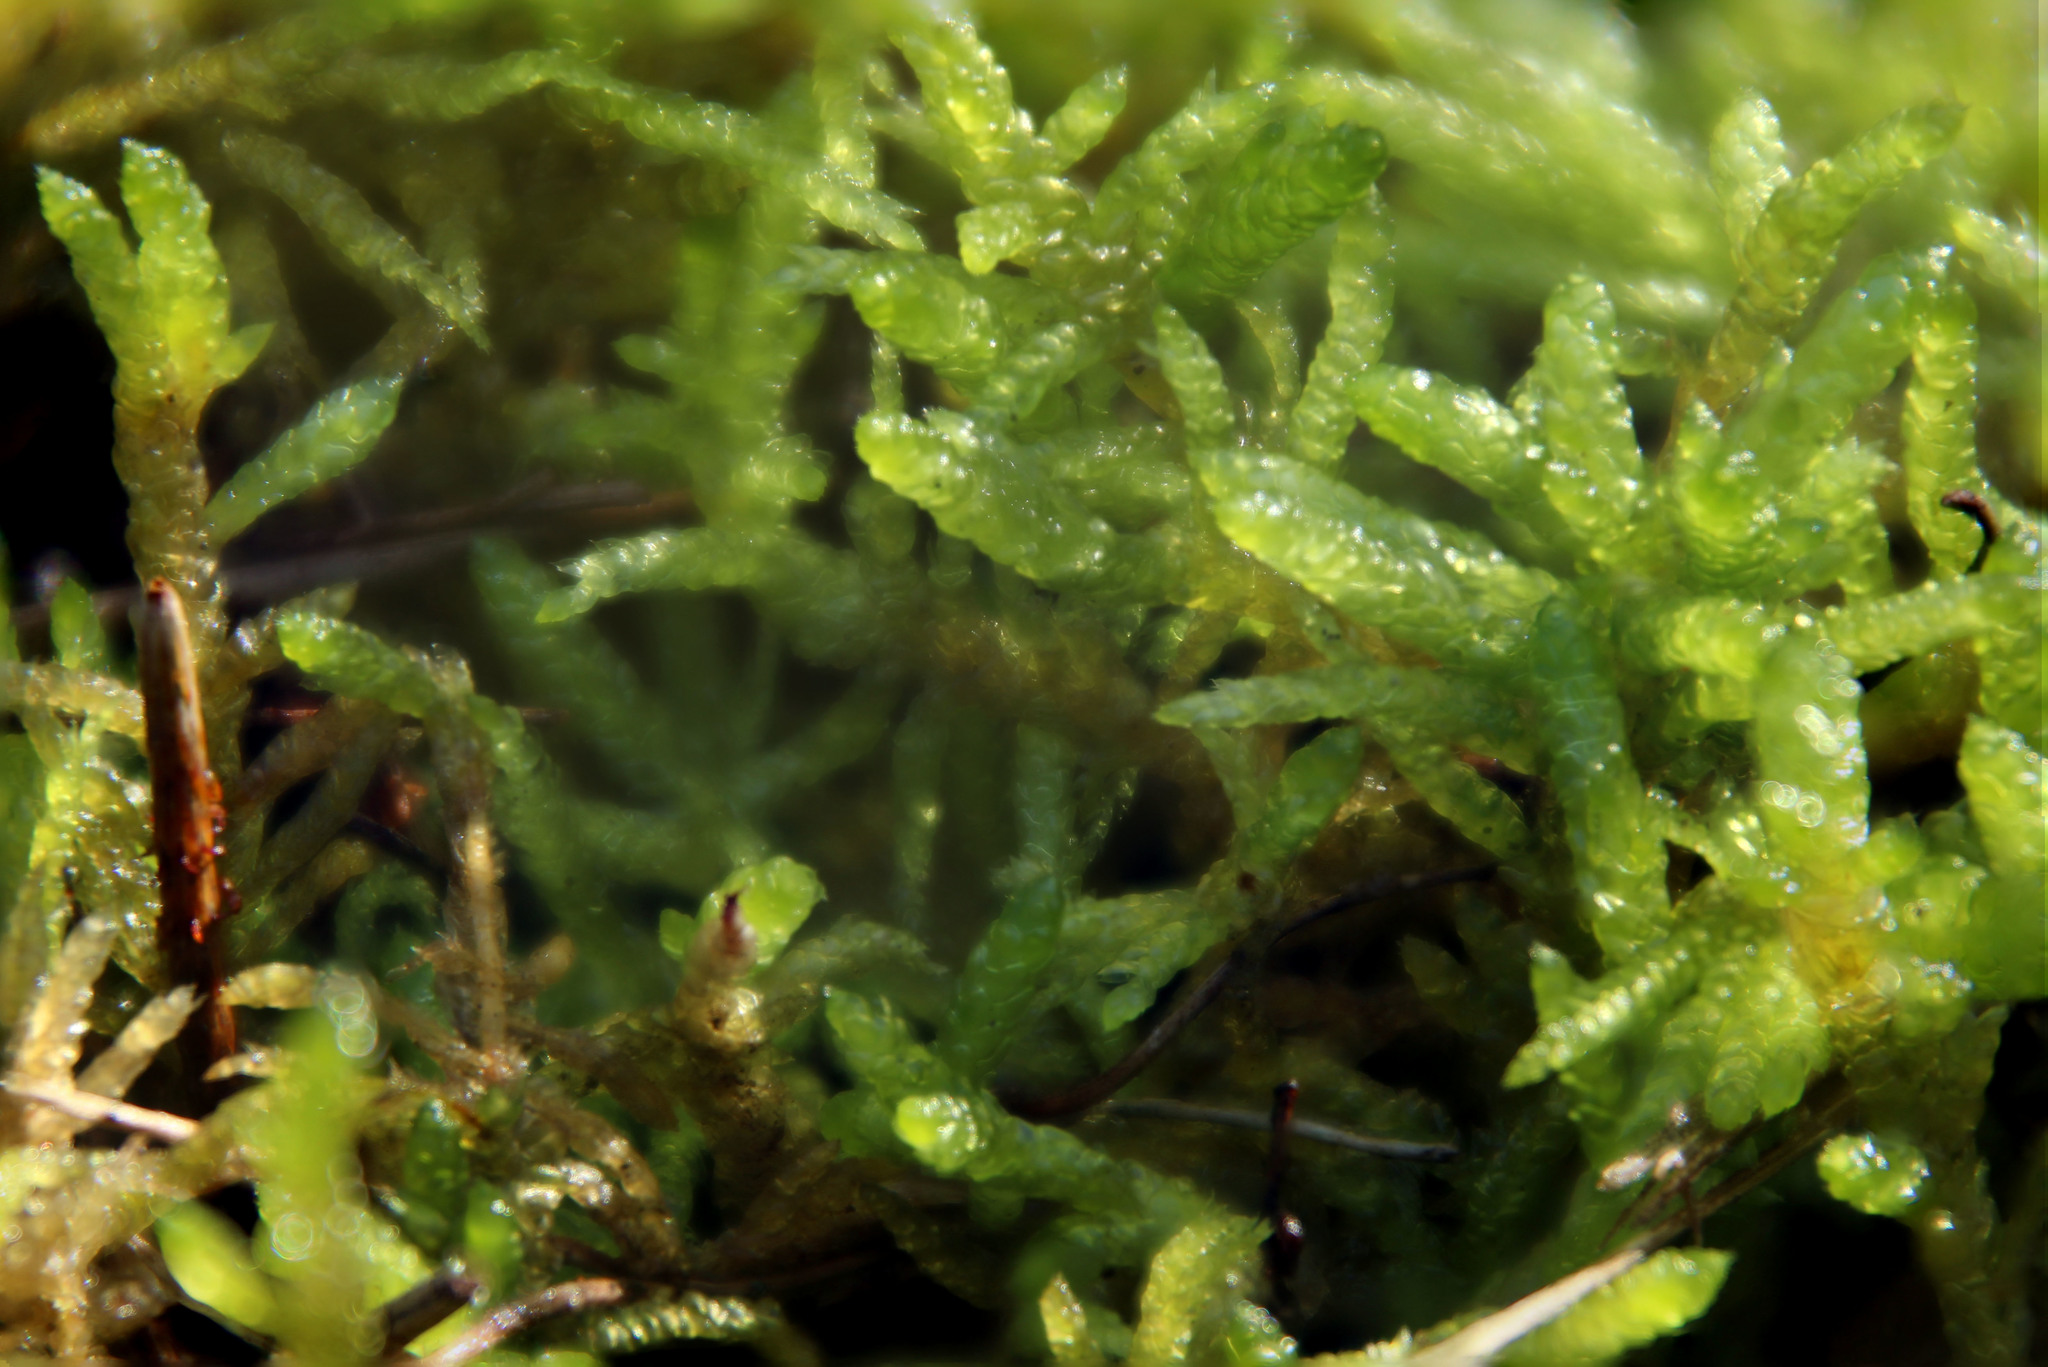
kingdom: Plantae
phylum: Bryophyta
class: Bryopsida
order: Hypnales
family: Brachytheciaceae
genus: Pseudoscleropodium
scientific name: Pseudoscleropodium purum
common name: Neat feather-moss
